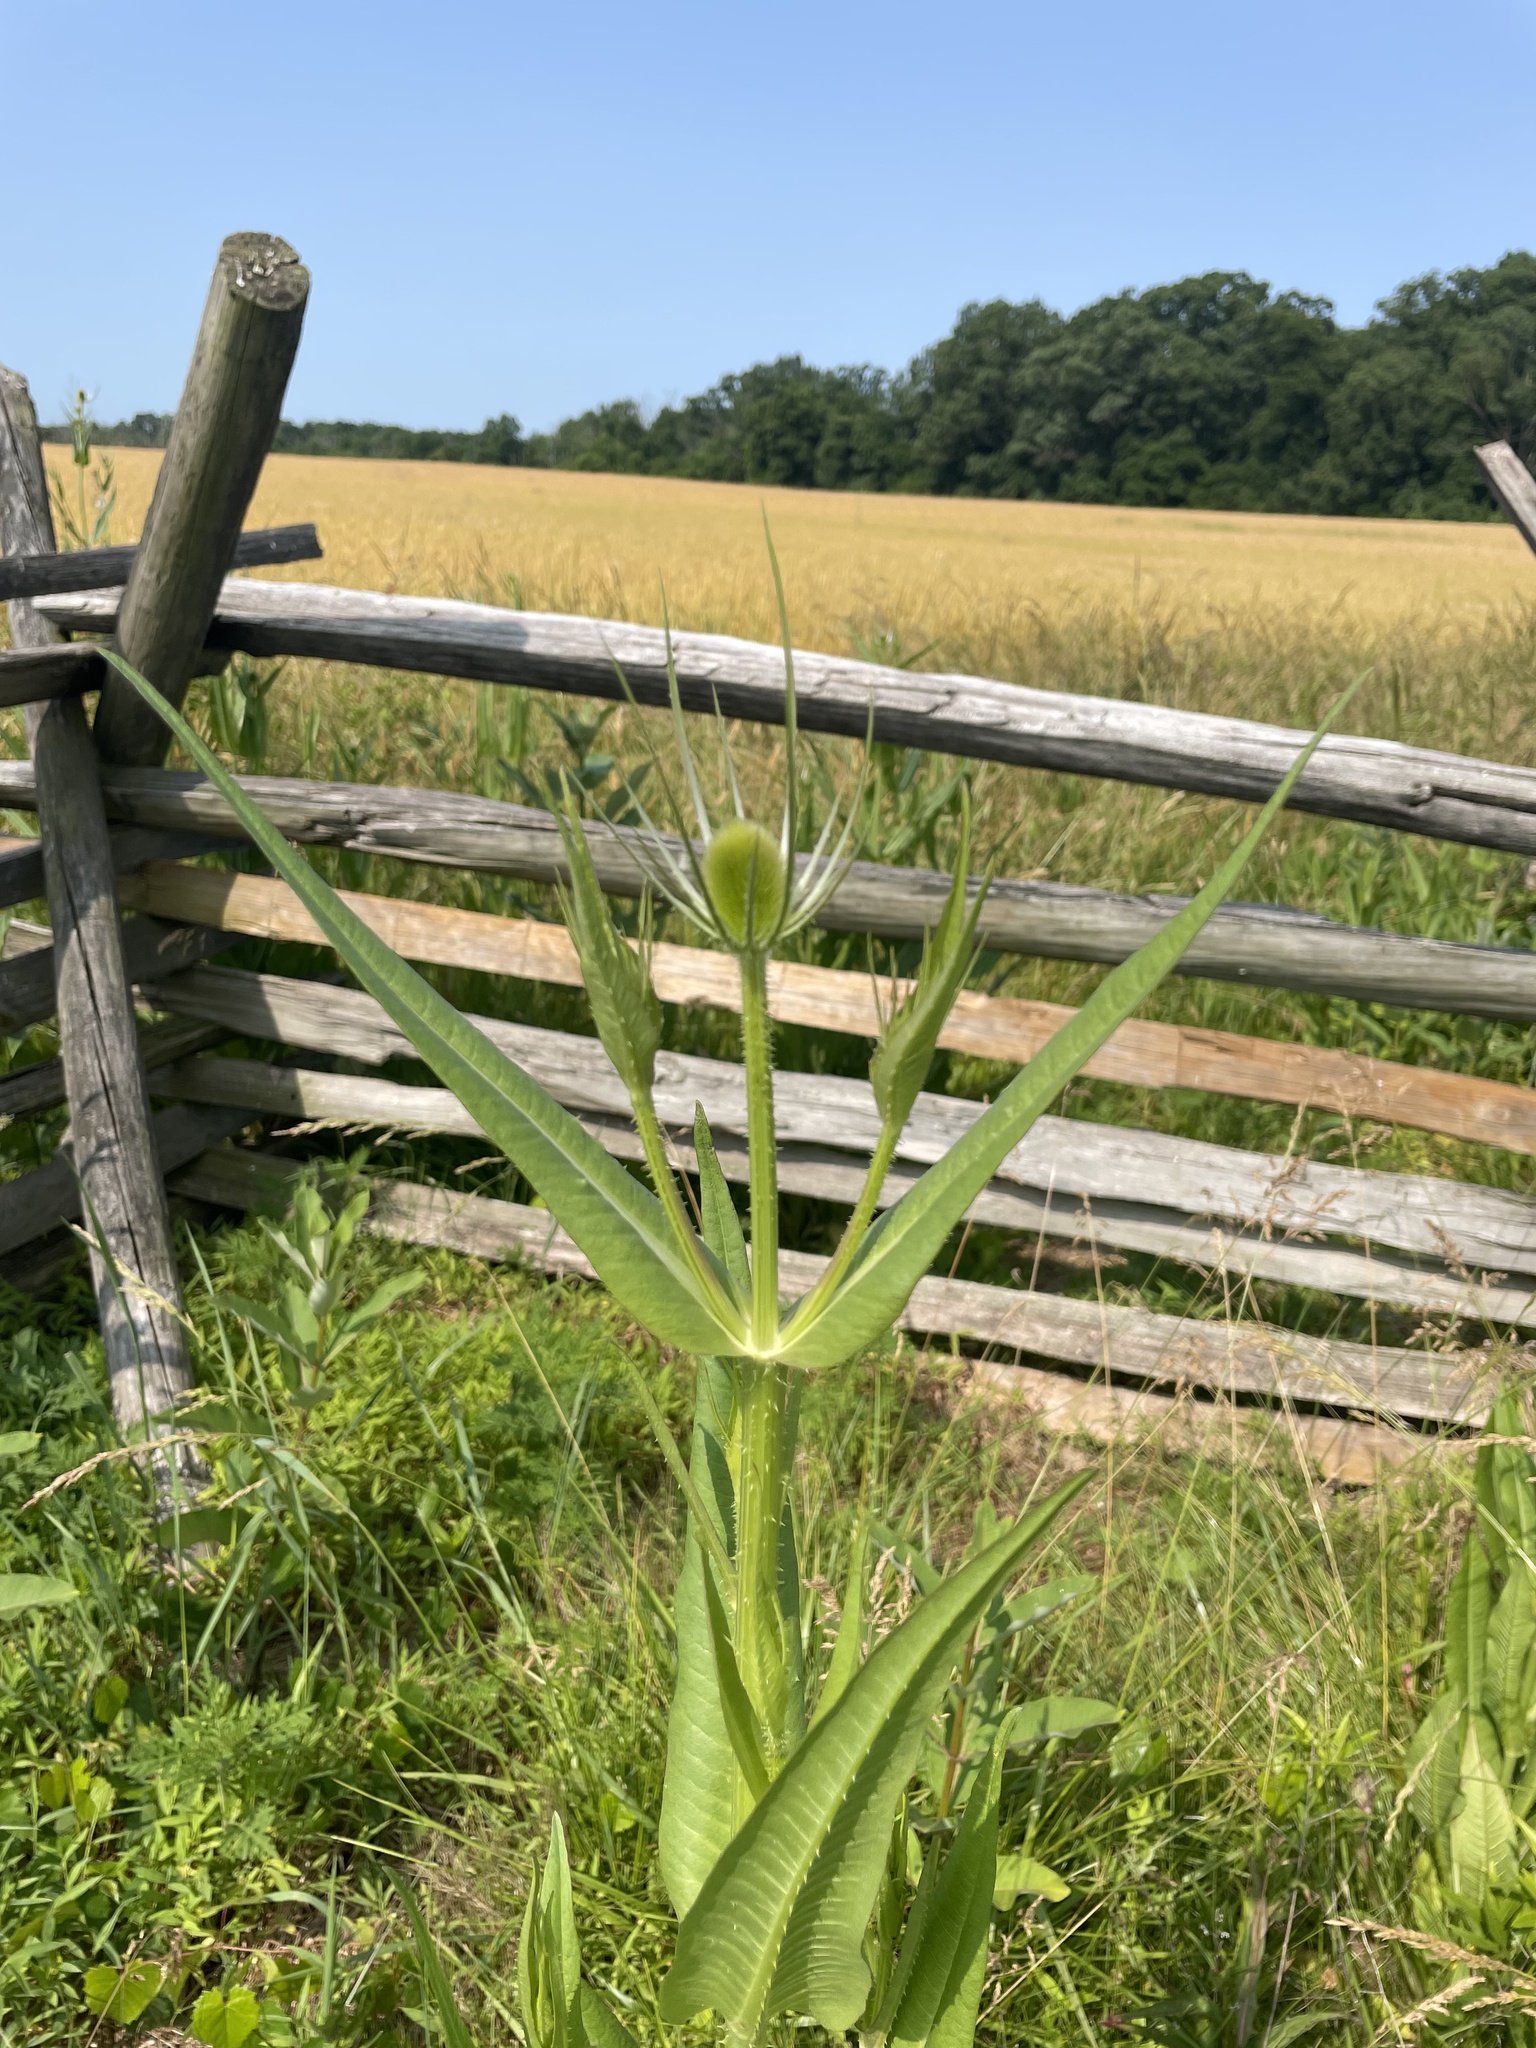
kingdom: Plantae
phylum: Tracheophyta
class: Magnoliopsida
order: Dipsacales
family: Caprifoliaceae
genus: Dipsacus
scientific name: Dipsacus fullonum
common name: Teasel
